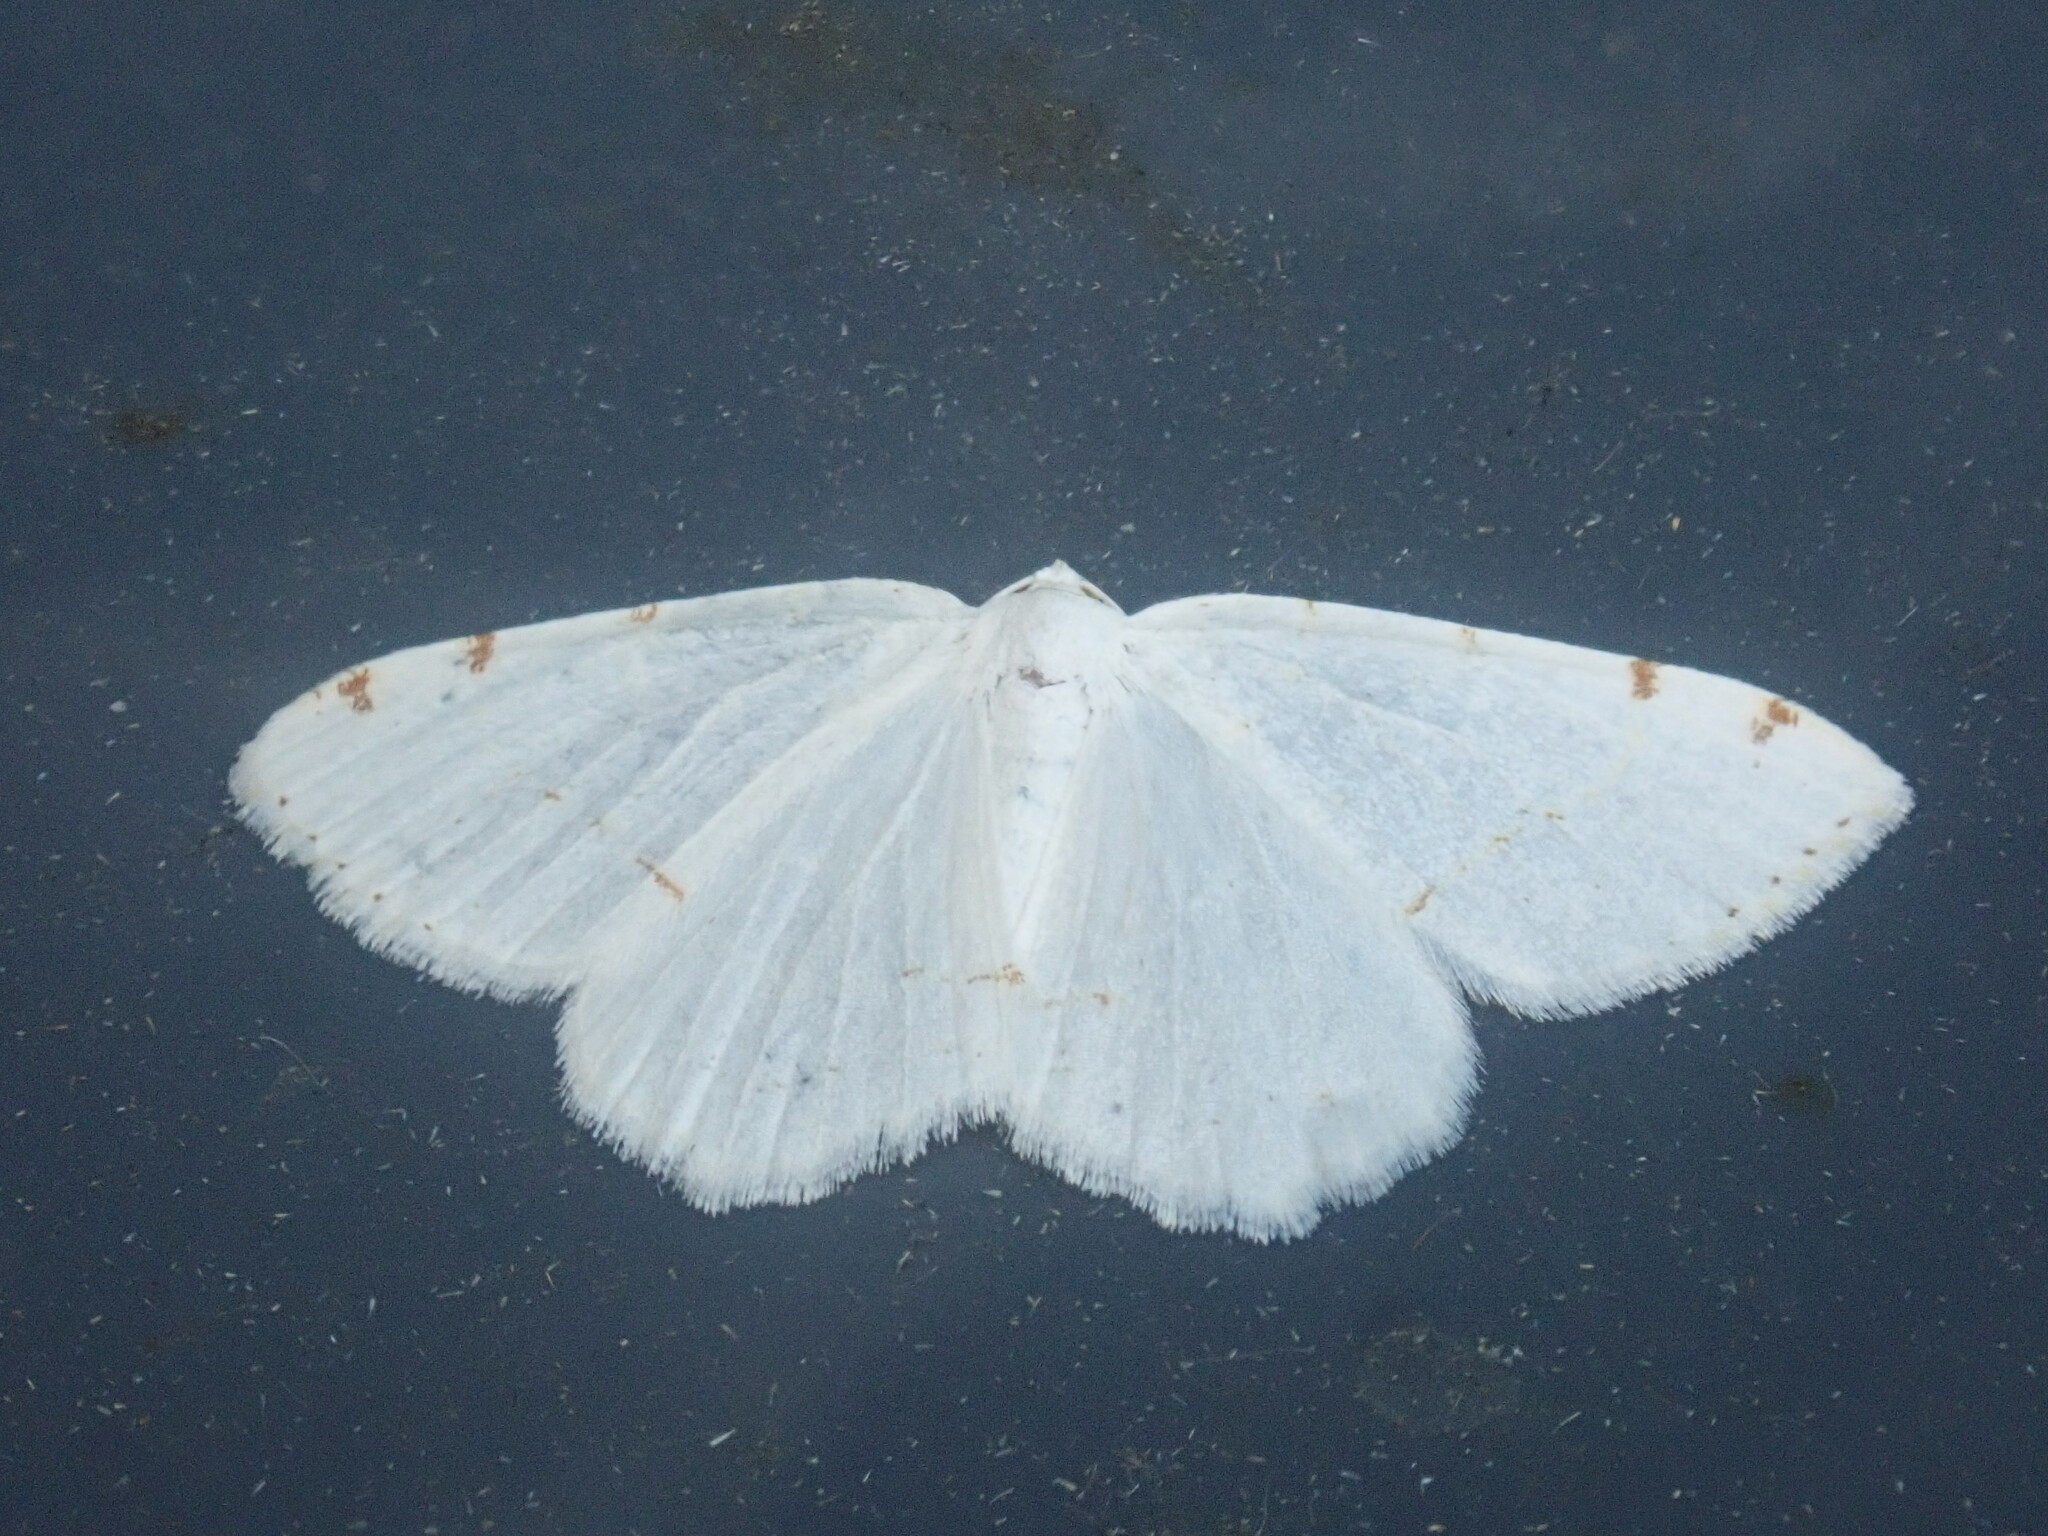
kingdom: Animalia
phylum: Arthropoda
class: Insecta
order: Lepidoptera
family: Geometridae
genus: Macaria
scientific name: Macaria pustularia
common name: Lesser maple spanworm moth
